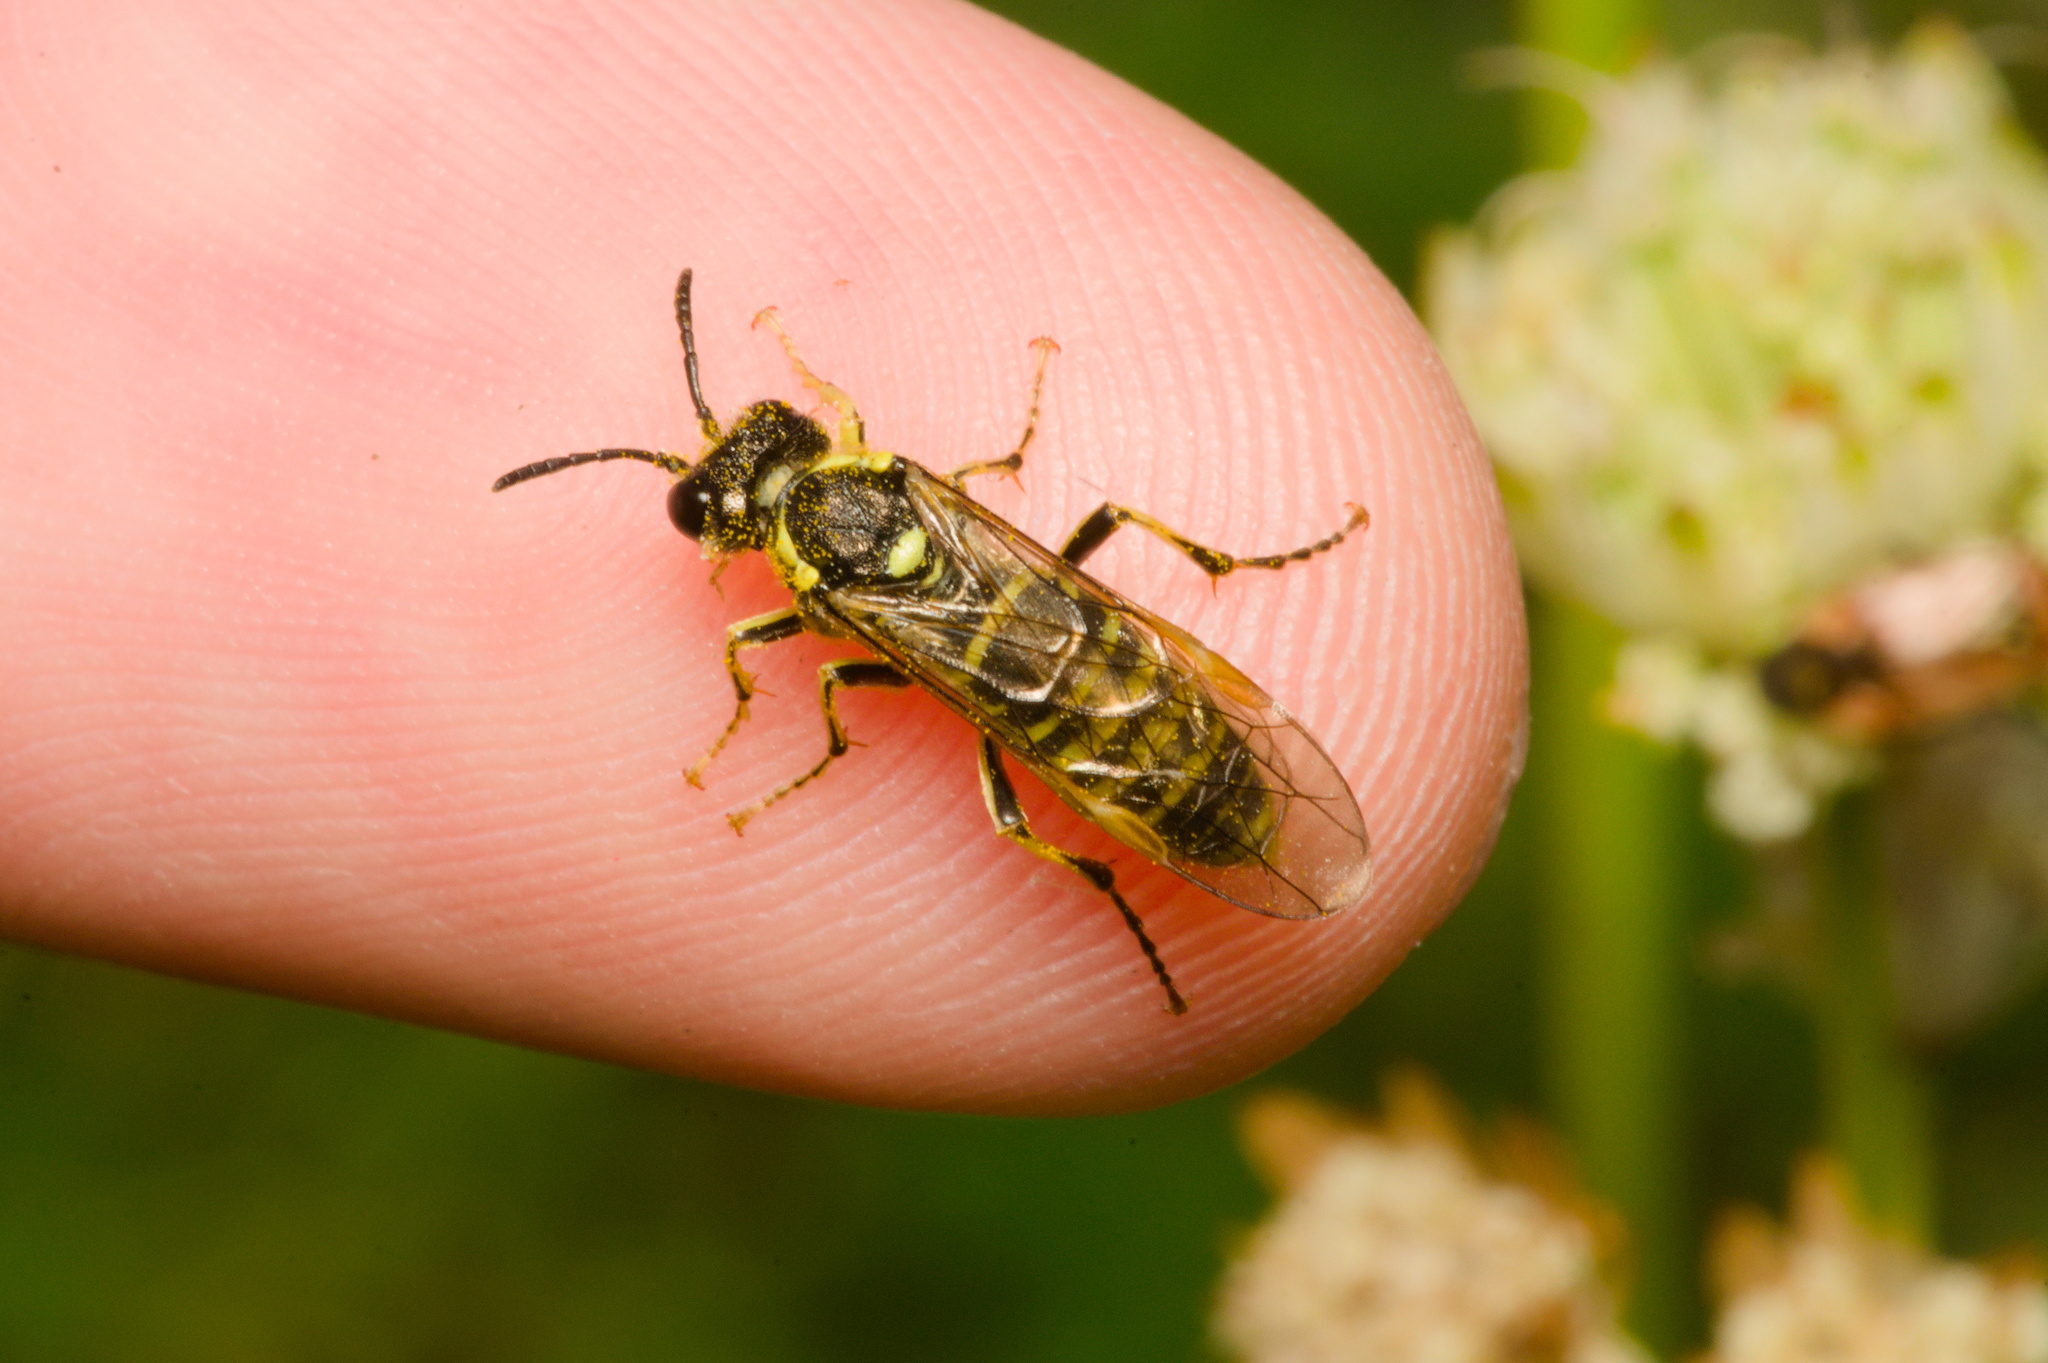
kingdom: Animalia
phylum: Arthropoda
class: Insecta
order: Hymenoptera
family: Tenthredinidae
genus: Tenthredo
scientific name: Tenthredo notha
